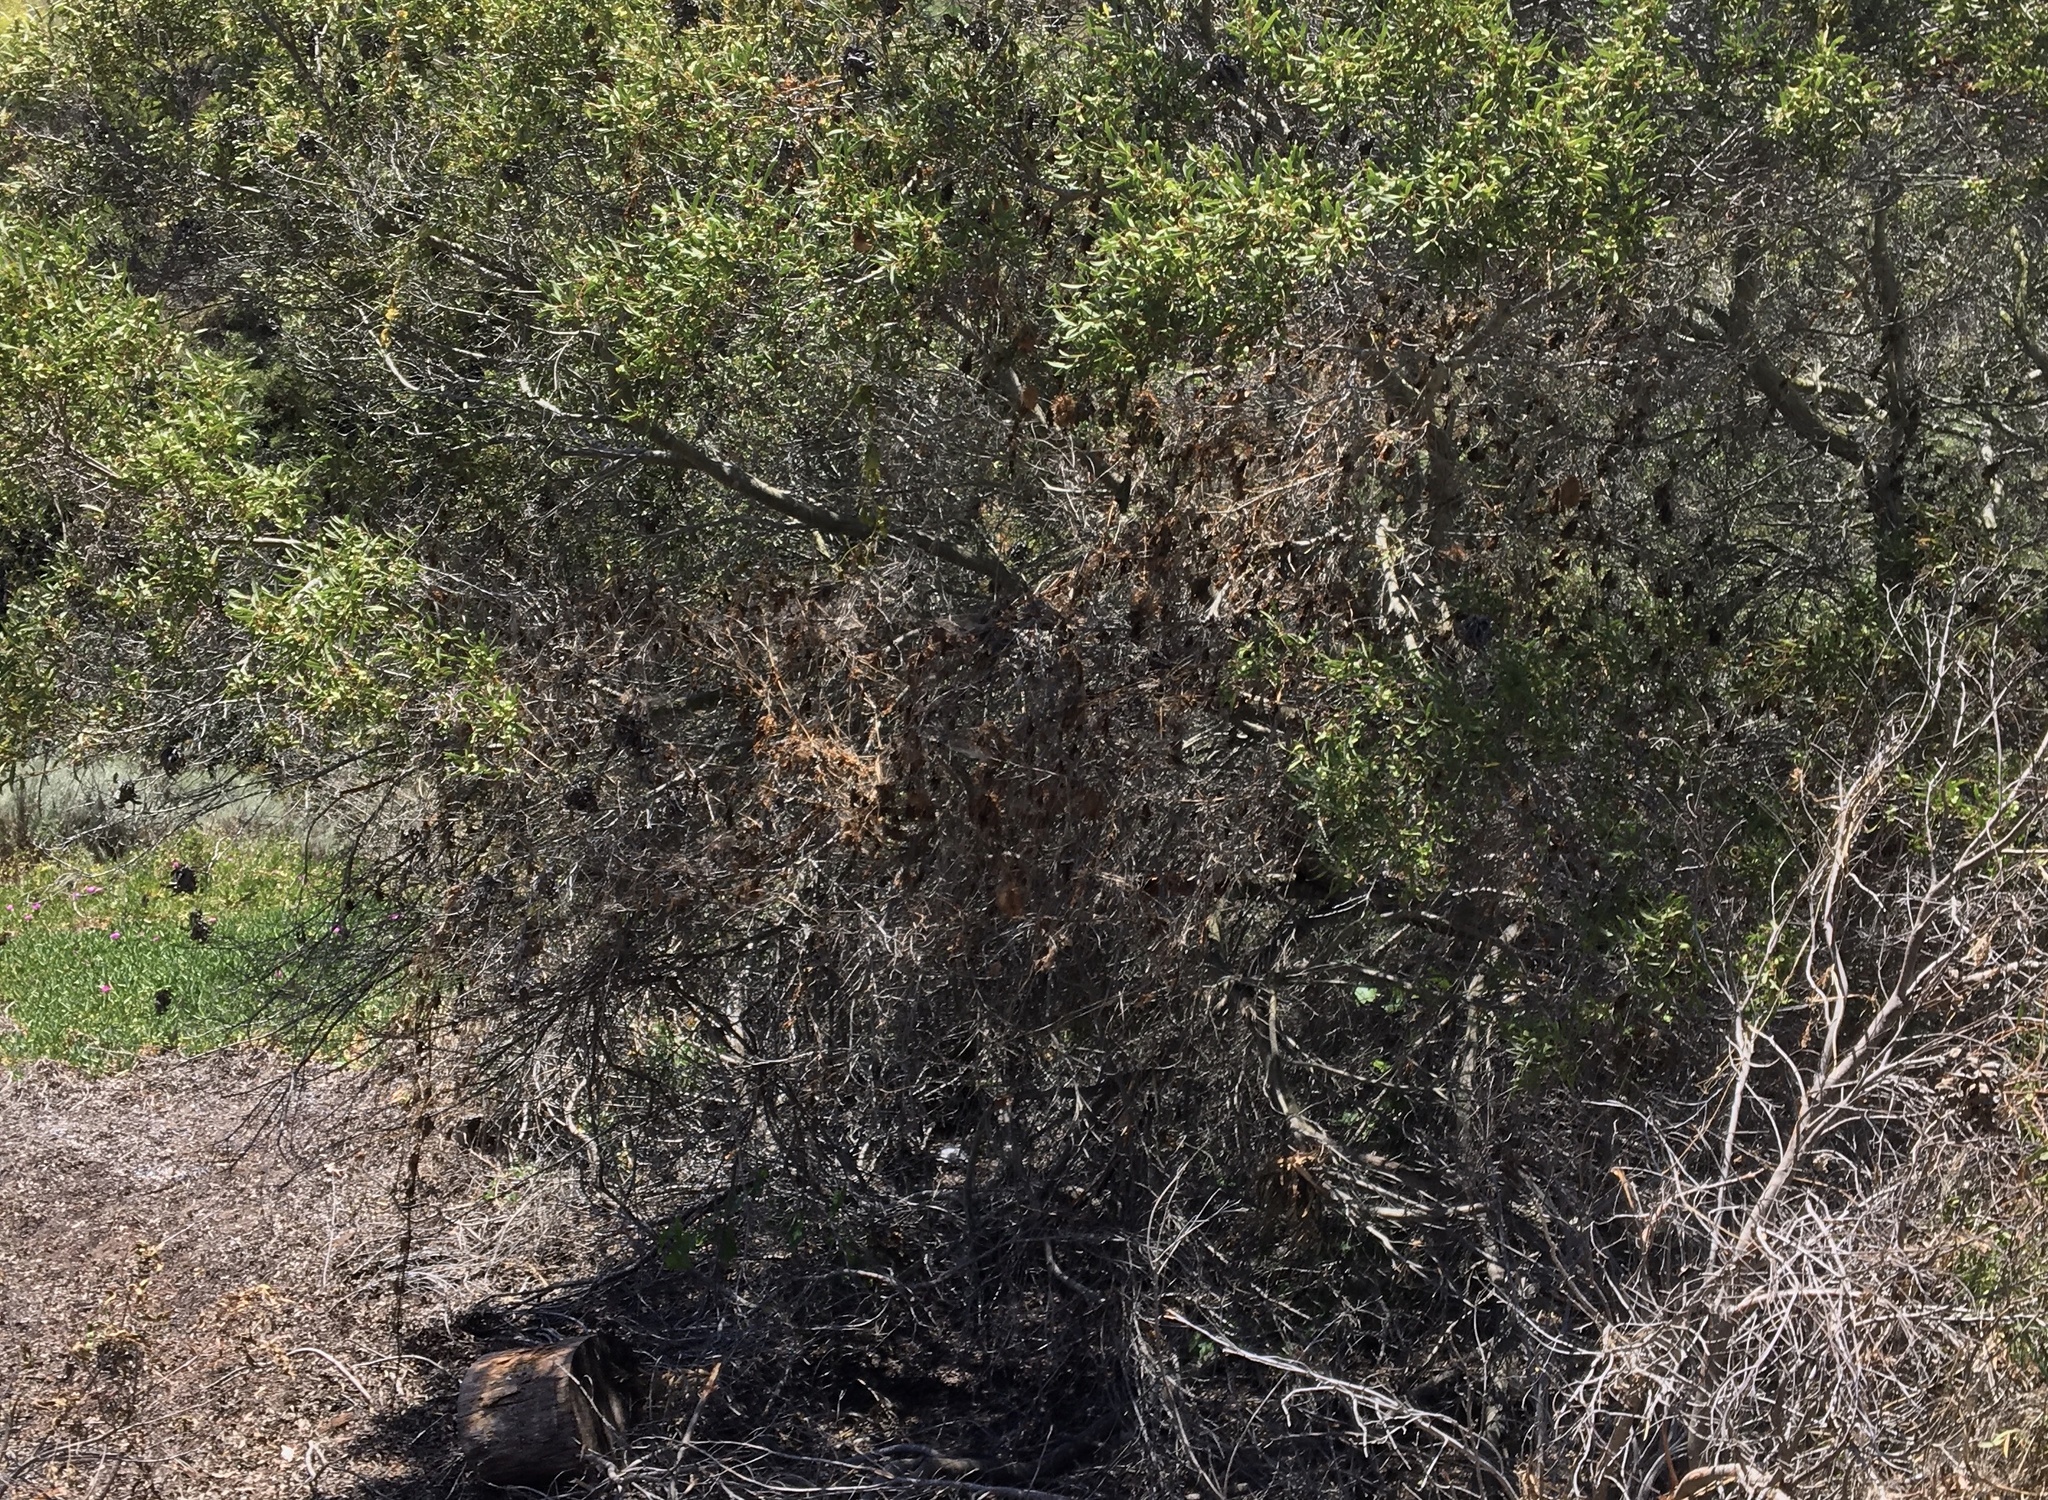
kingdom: Plantae
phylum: Tracheophyta
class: Magnoliopsida
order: Cucurbitales
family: Cucurbitaceae
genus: Marah
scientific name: Marah macrocarpa
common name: Cucamonga manroot
